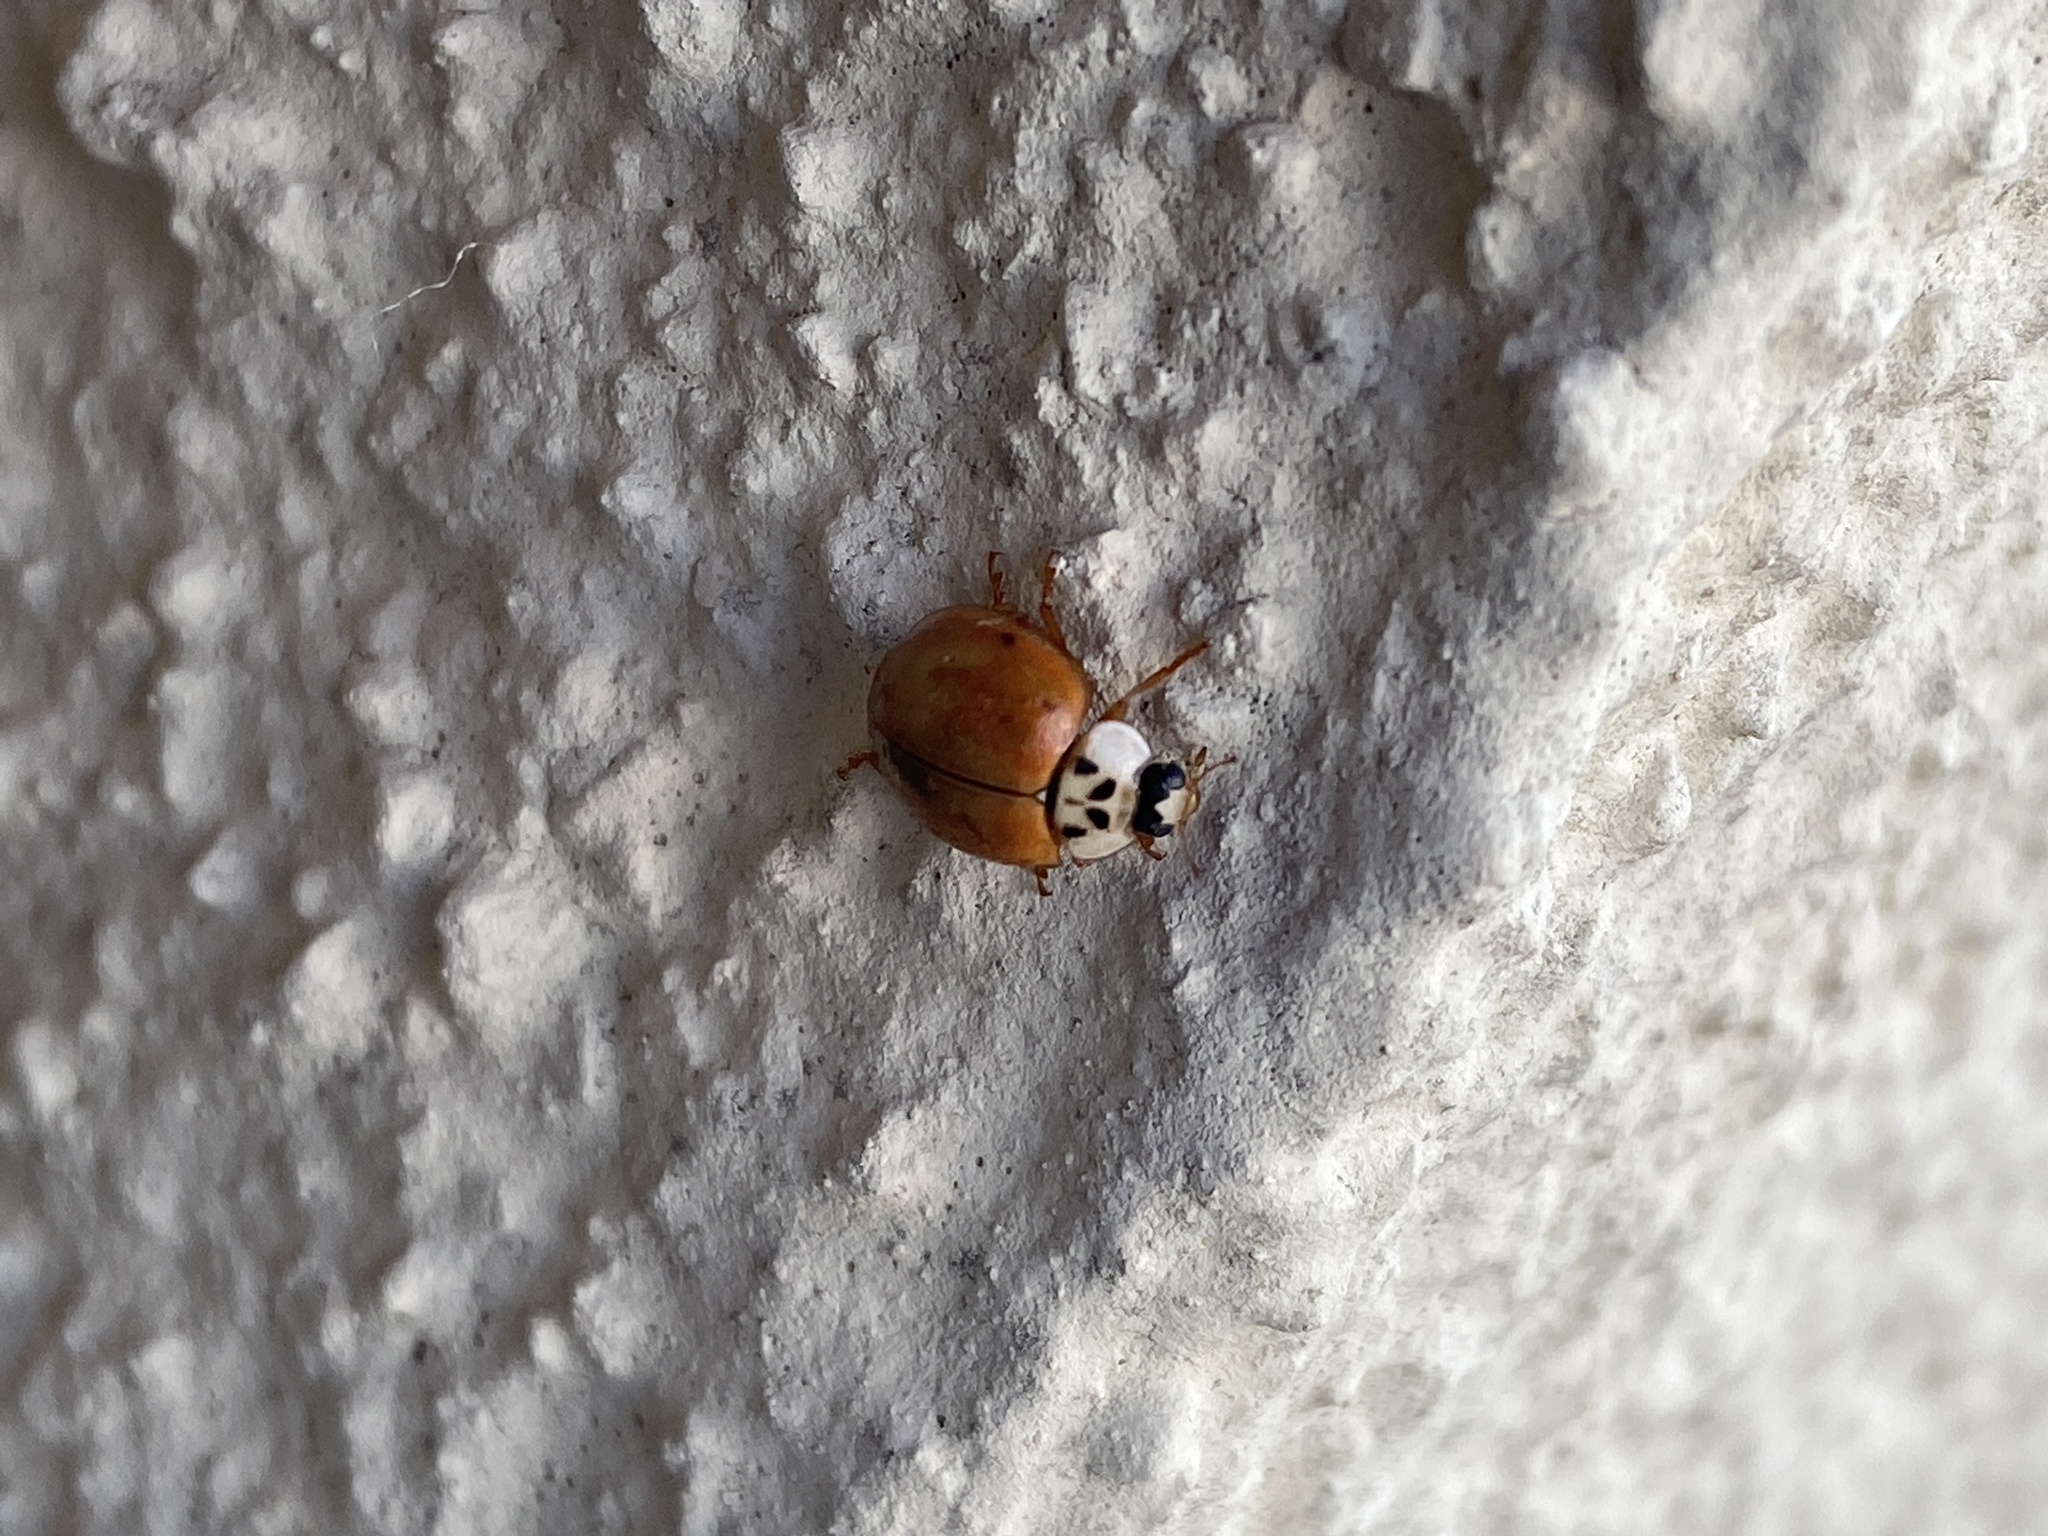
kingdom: Animalia
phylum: Arthropoda
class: Insecta
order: Coleoptera
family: Coccinellidae
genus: Harmonia
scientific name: Harmonia axyridis
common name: Harlequin ladybird
